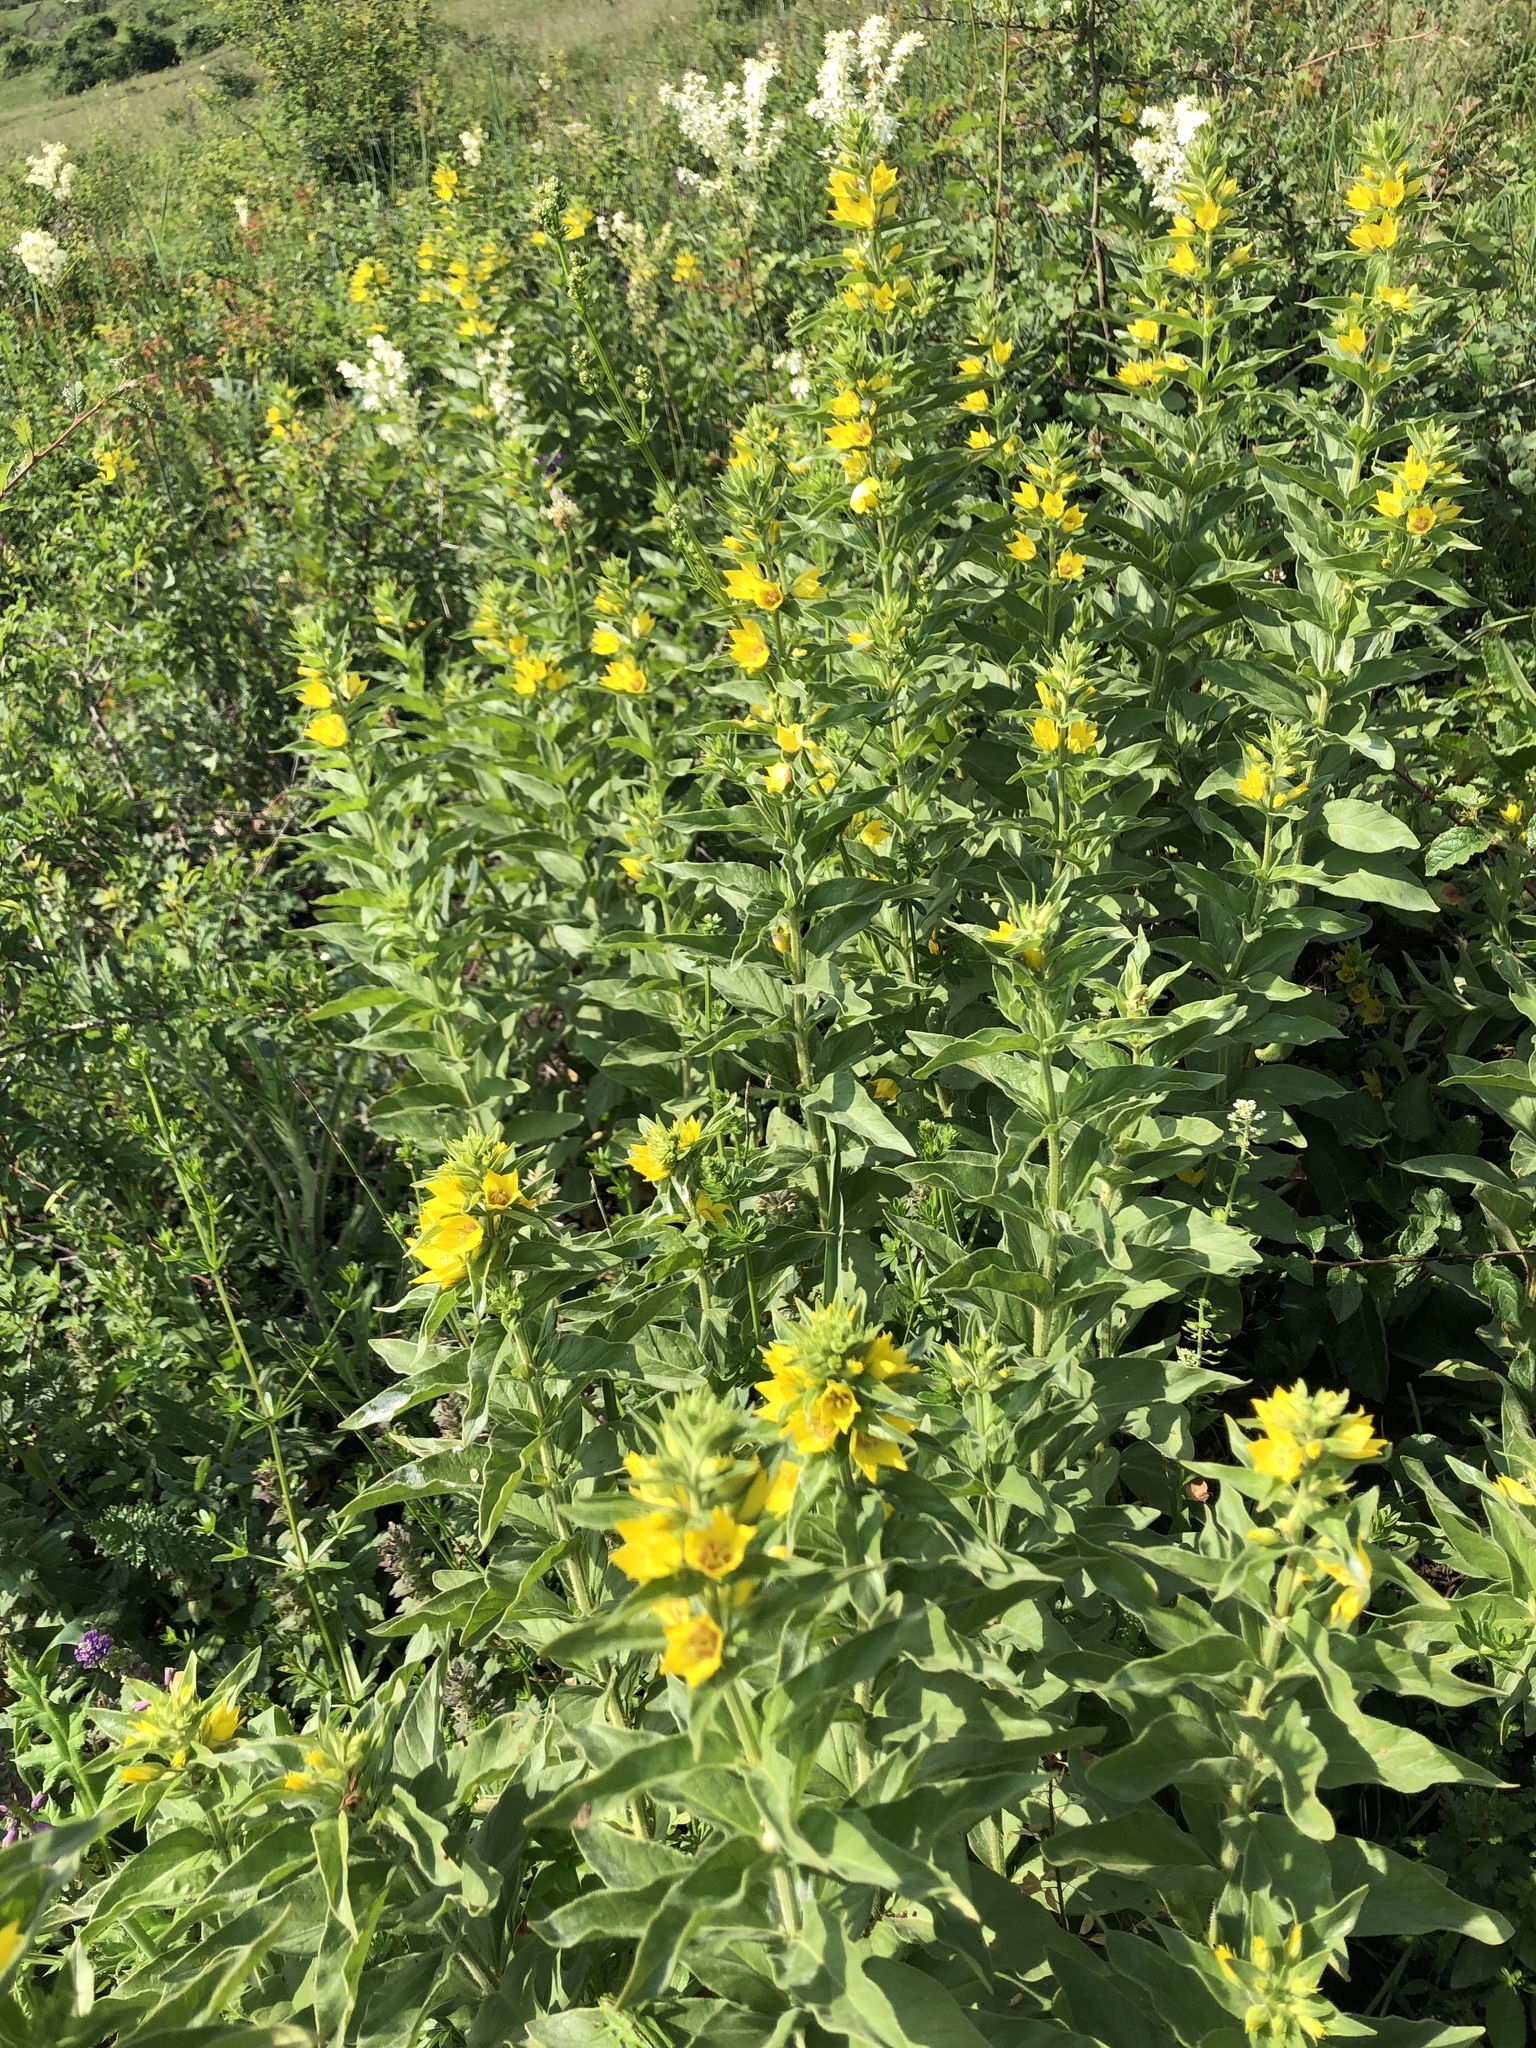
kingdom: Plantae
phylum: Tracheophyta
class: Magnoliopsida
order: Ericales
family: Primulaceae
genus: Lysimachia
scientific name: Lysimachia punctata
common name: Dotted loosestrife
